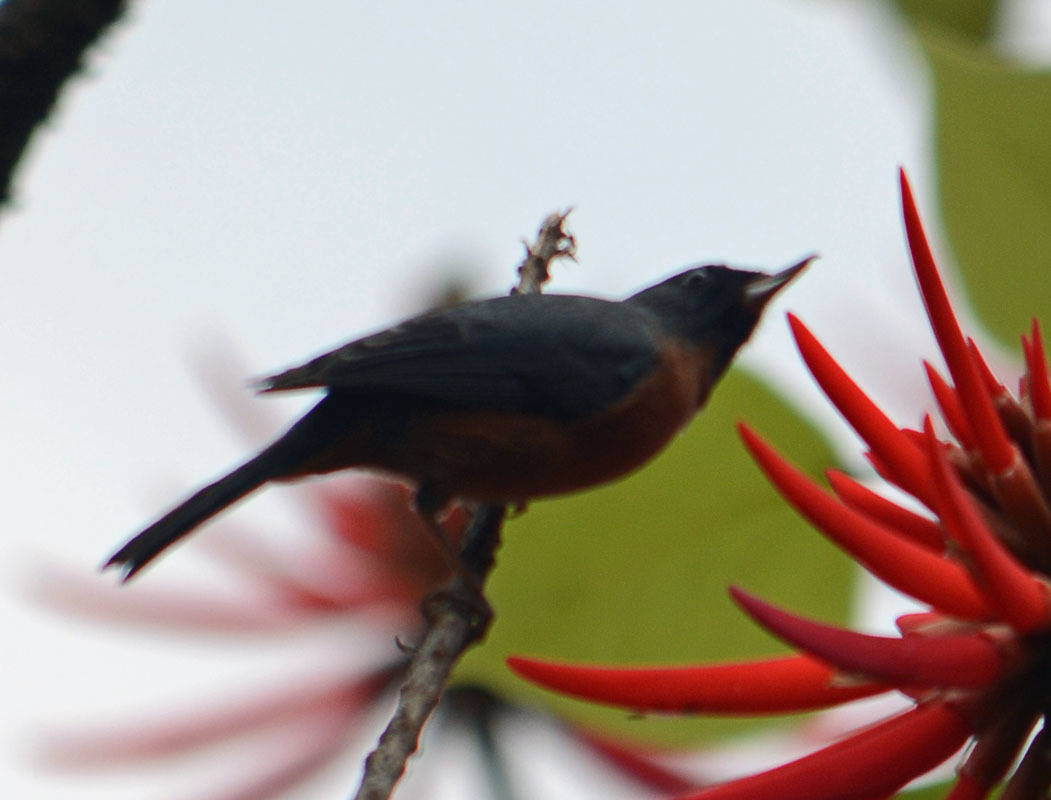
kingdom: Animalia
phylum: Chordata
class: Aves
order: Passeriformes
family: Thraupidae
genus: Diglossa
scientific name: Diglossa baritula
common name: Cinnamon-bellied flowerpiercer
